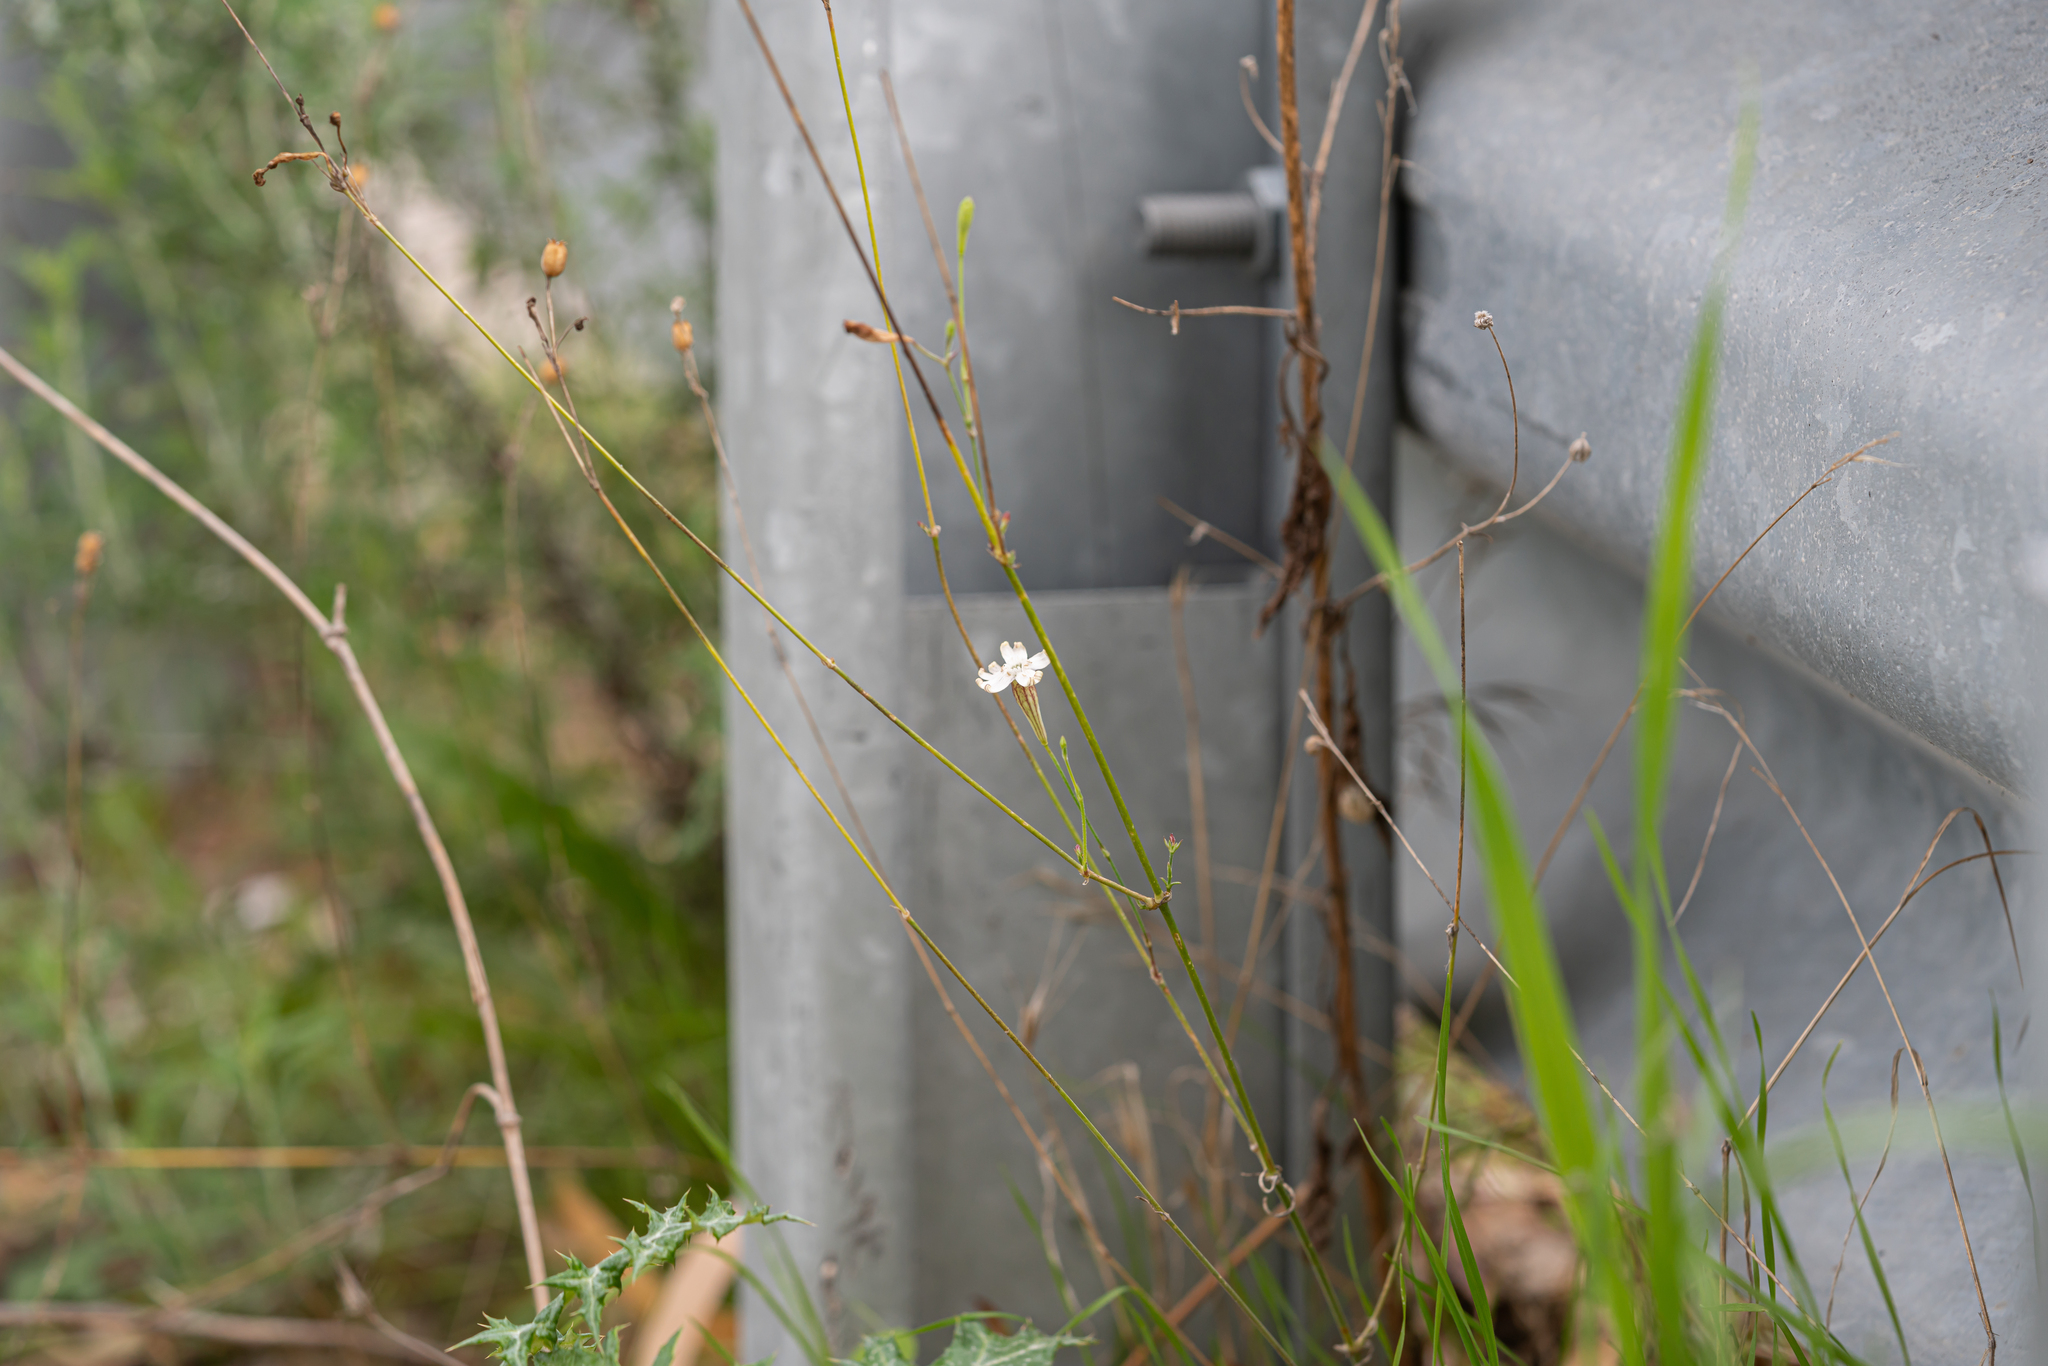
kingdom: Plantae
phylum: Tracheophyta
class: Magnoliopsida
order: Caryophyllales
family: Caryophyllaceae
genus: Silene
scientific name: Silene echinospermoides
